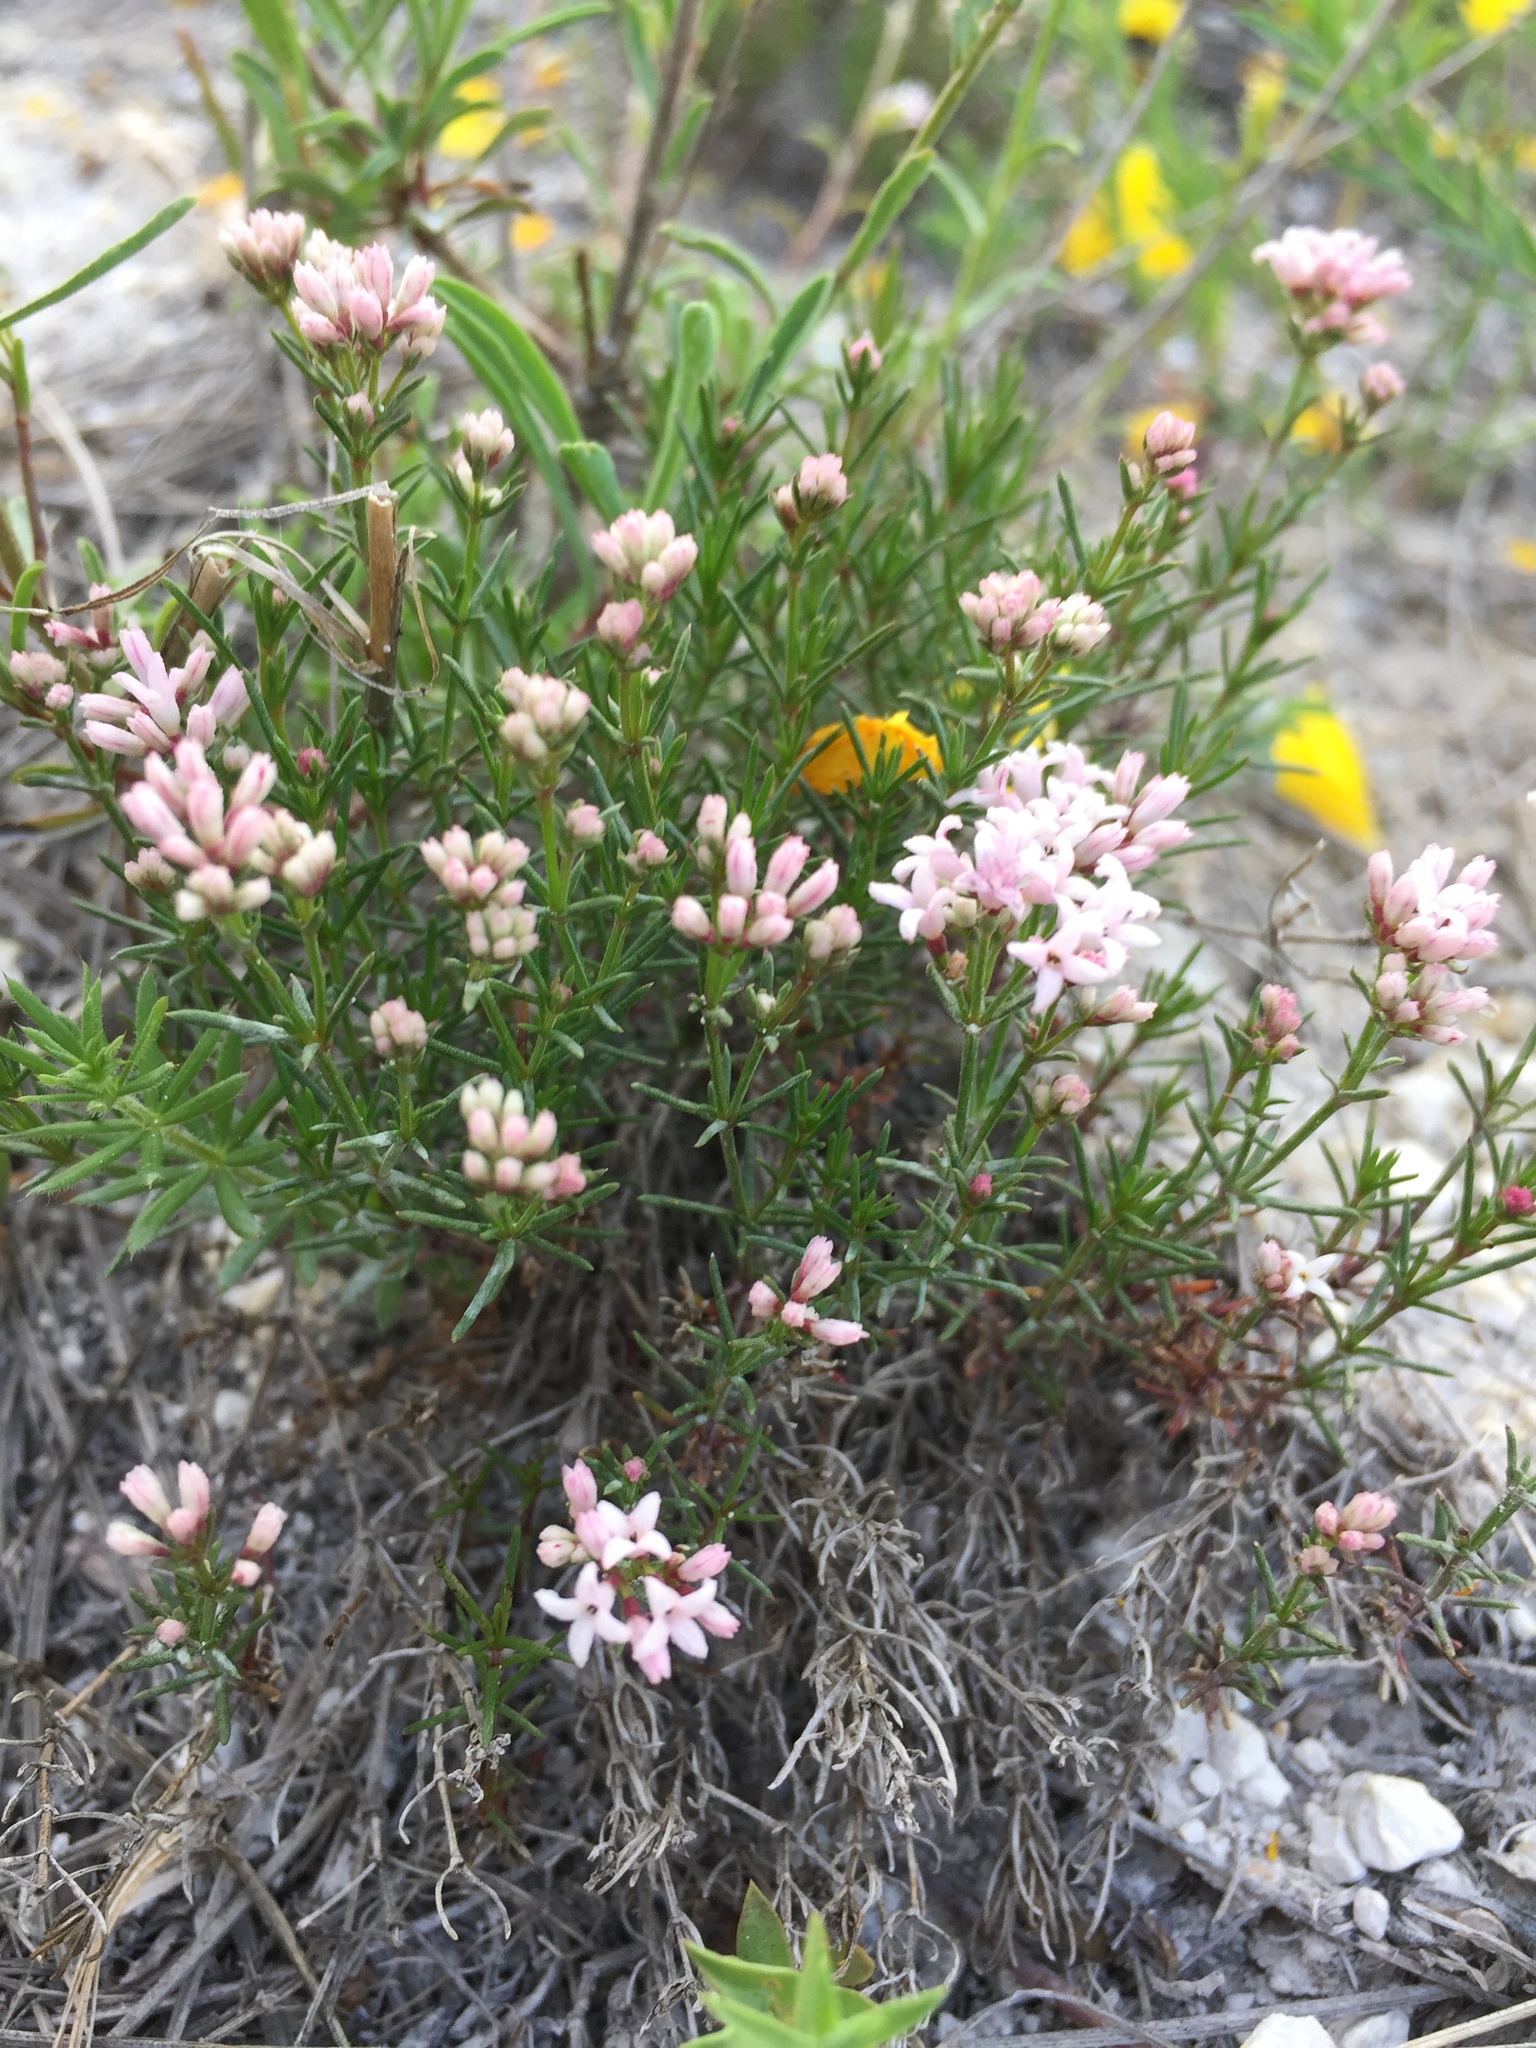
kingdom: Plantae
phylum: Tracheophyta
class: Magnoliopsida
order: Gentianales
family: Rubiaceae
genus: Cynanchica
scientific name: Cynanchica tephrocarpa
